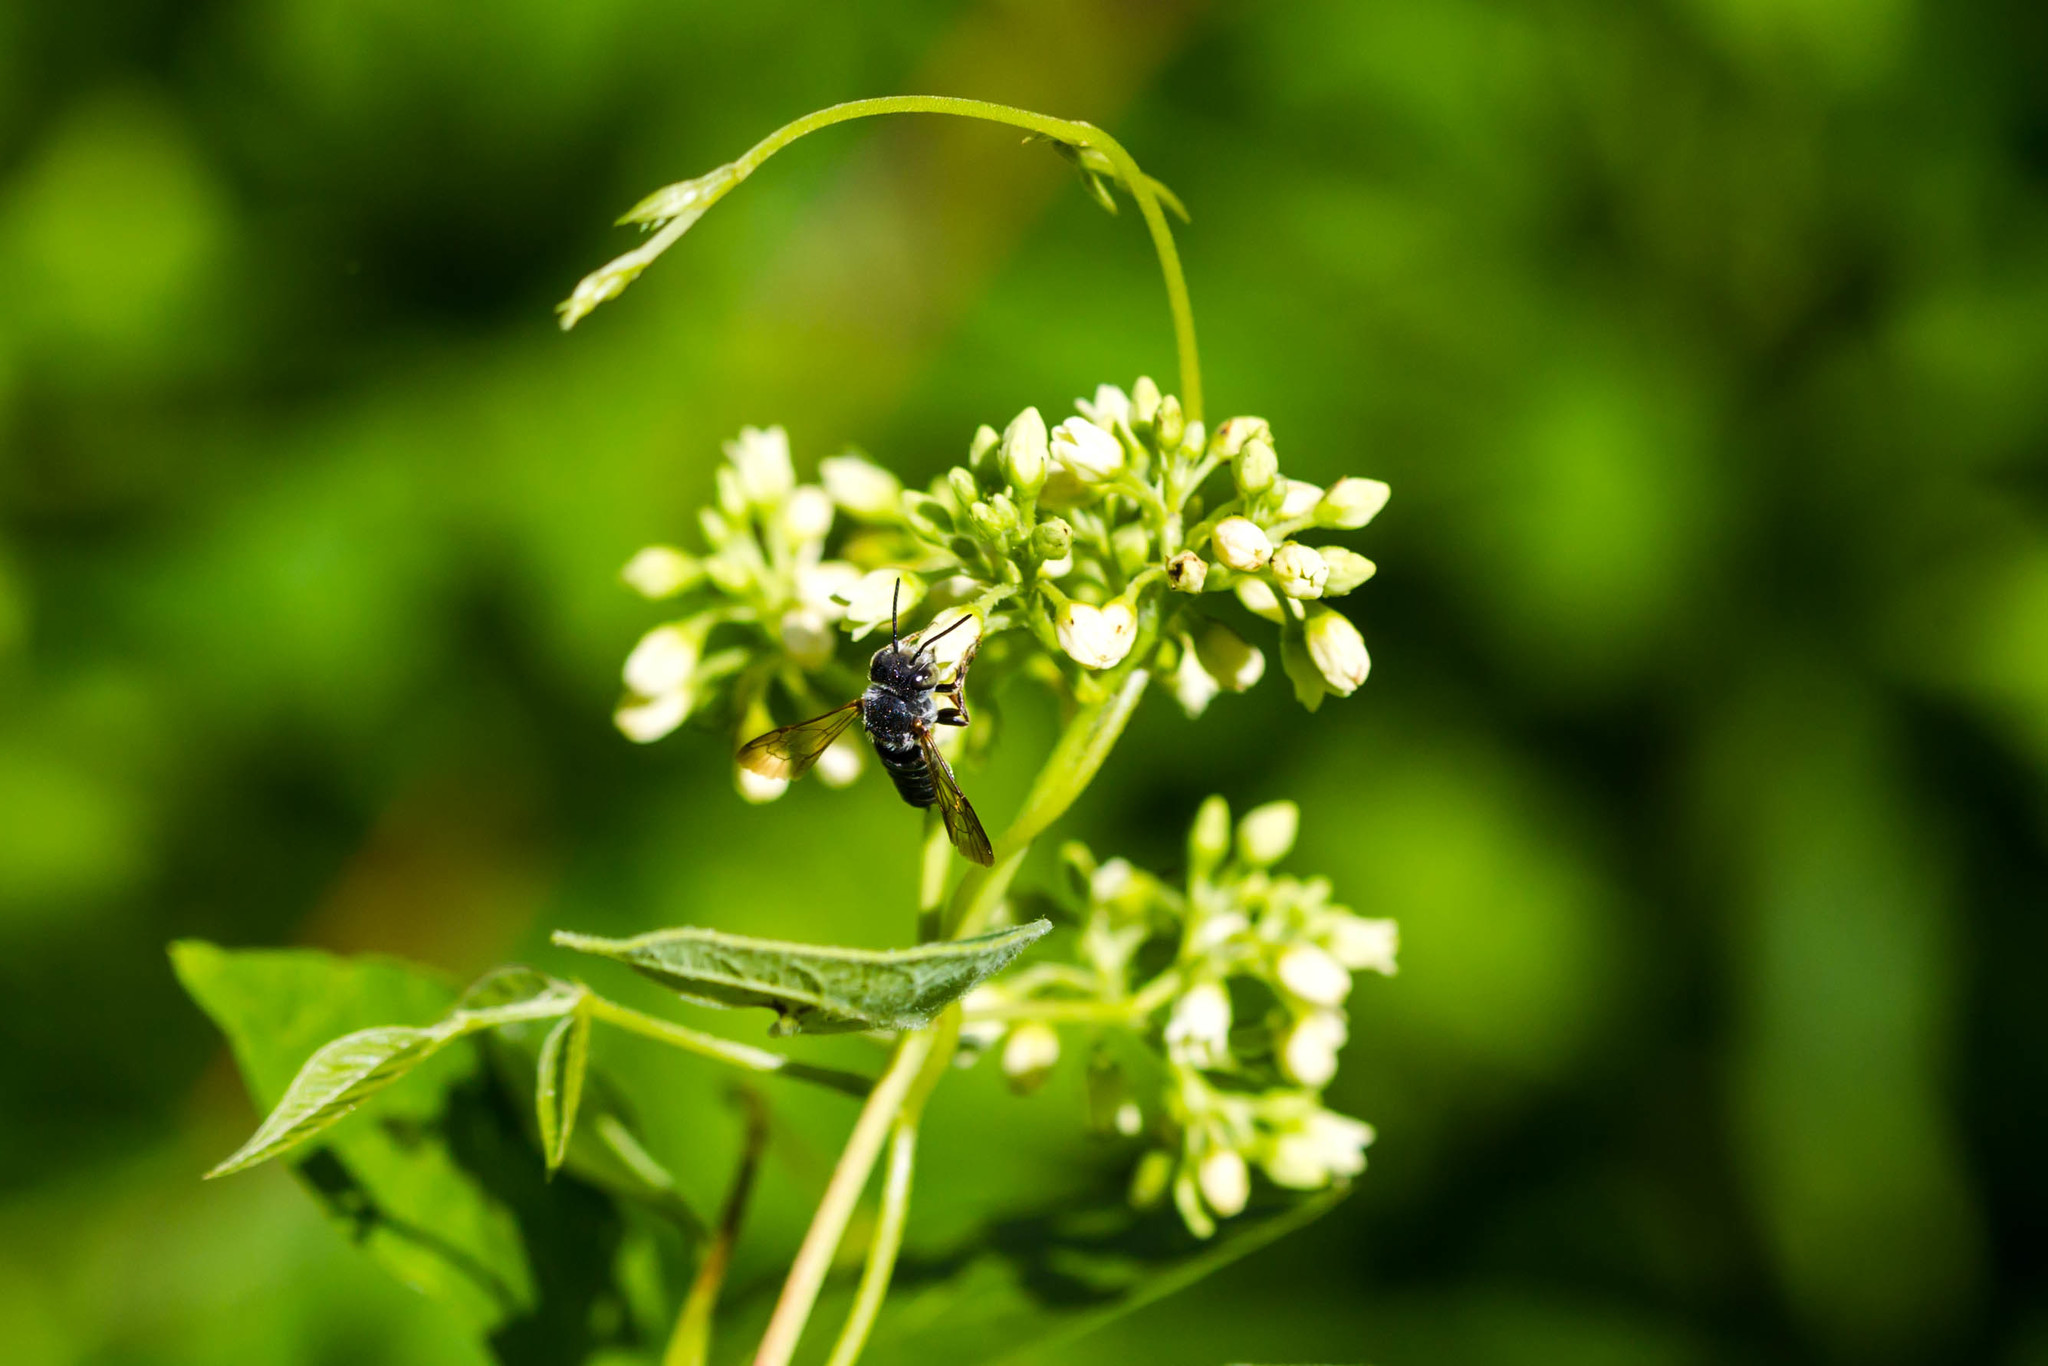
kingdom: Animalia
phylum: Arthropoda
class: Insecta
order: Hymenoptera
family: Megachilidae
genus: Coelioxys
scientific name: Coelioxys sayi
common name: Say's cuckoo leaf-cutter bee
